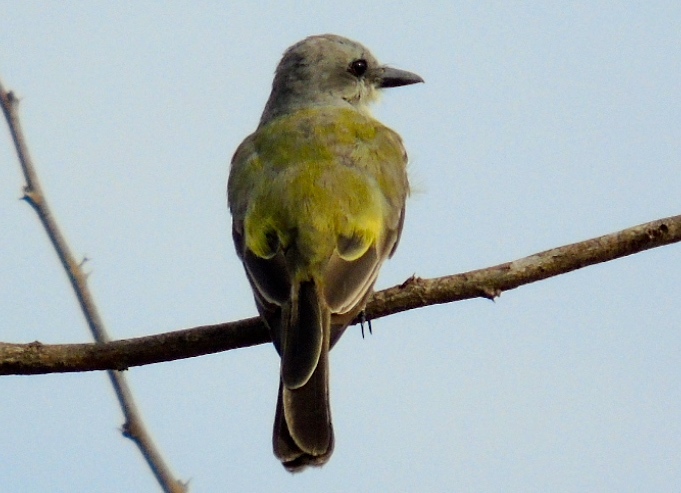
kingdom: Animalia
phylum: Chordata
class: Aves
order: Passeriformes
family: Tyrannidae
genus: Tyrannus
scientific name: Tyrannus melancholicus
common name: Tropical kingbird
